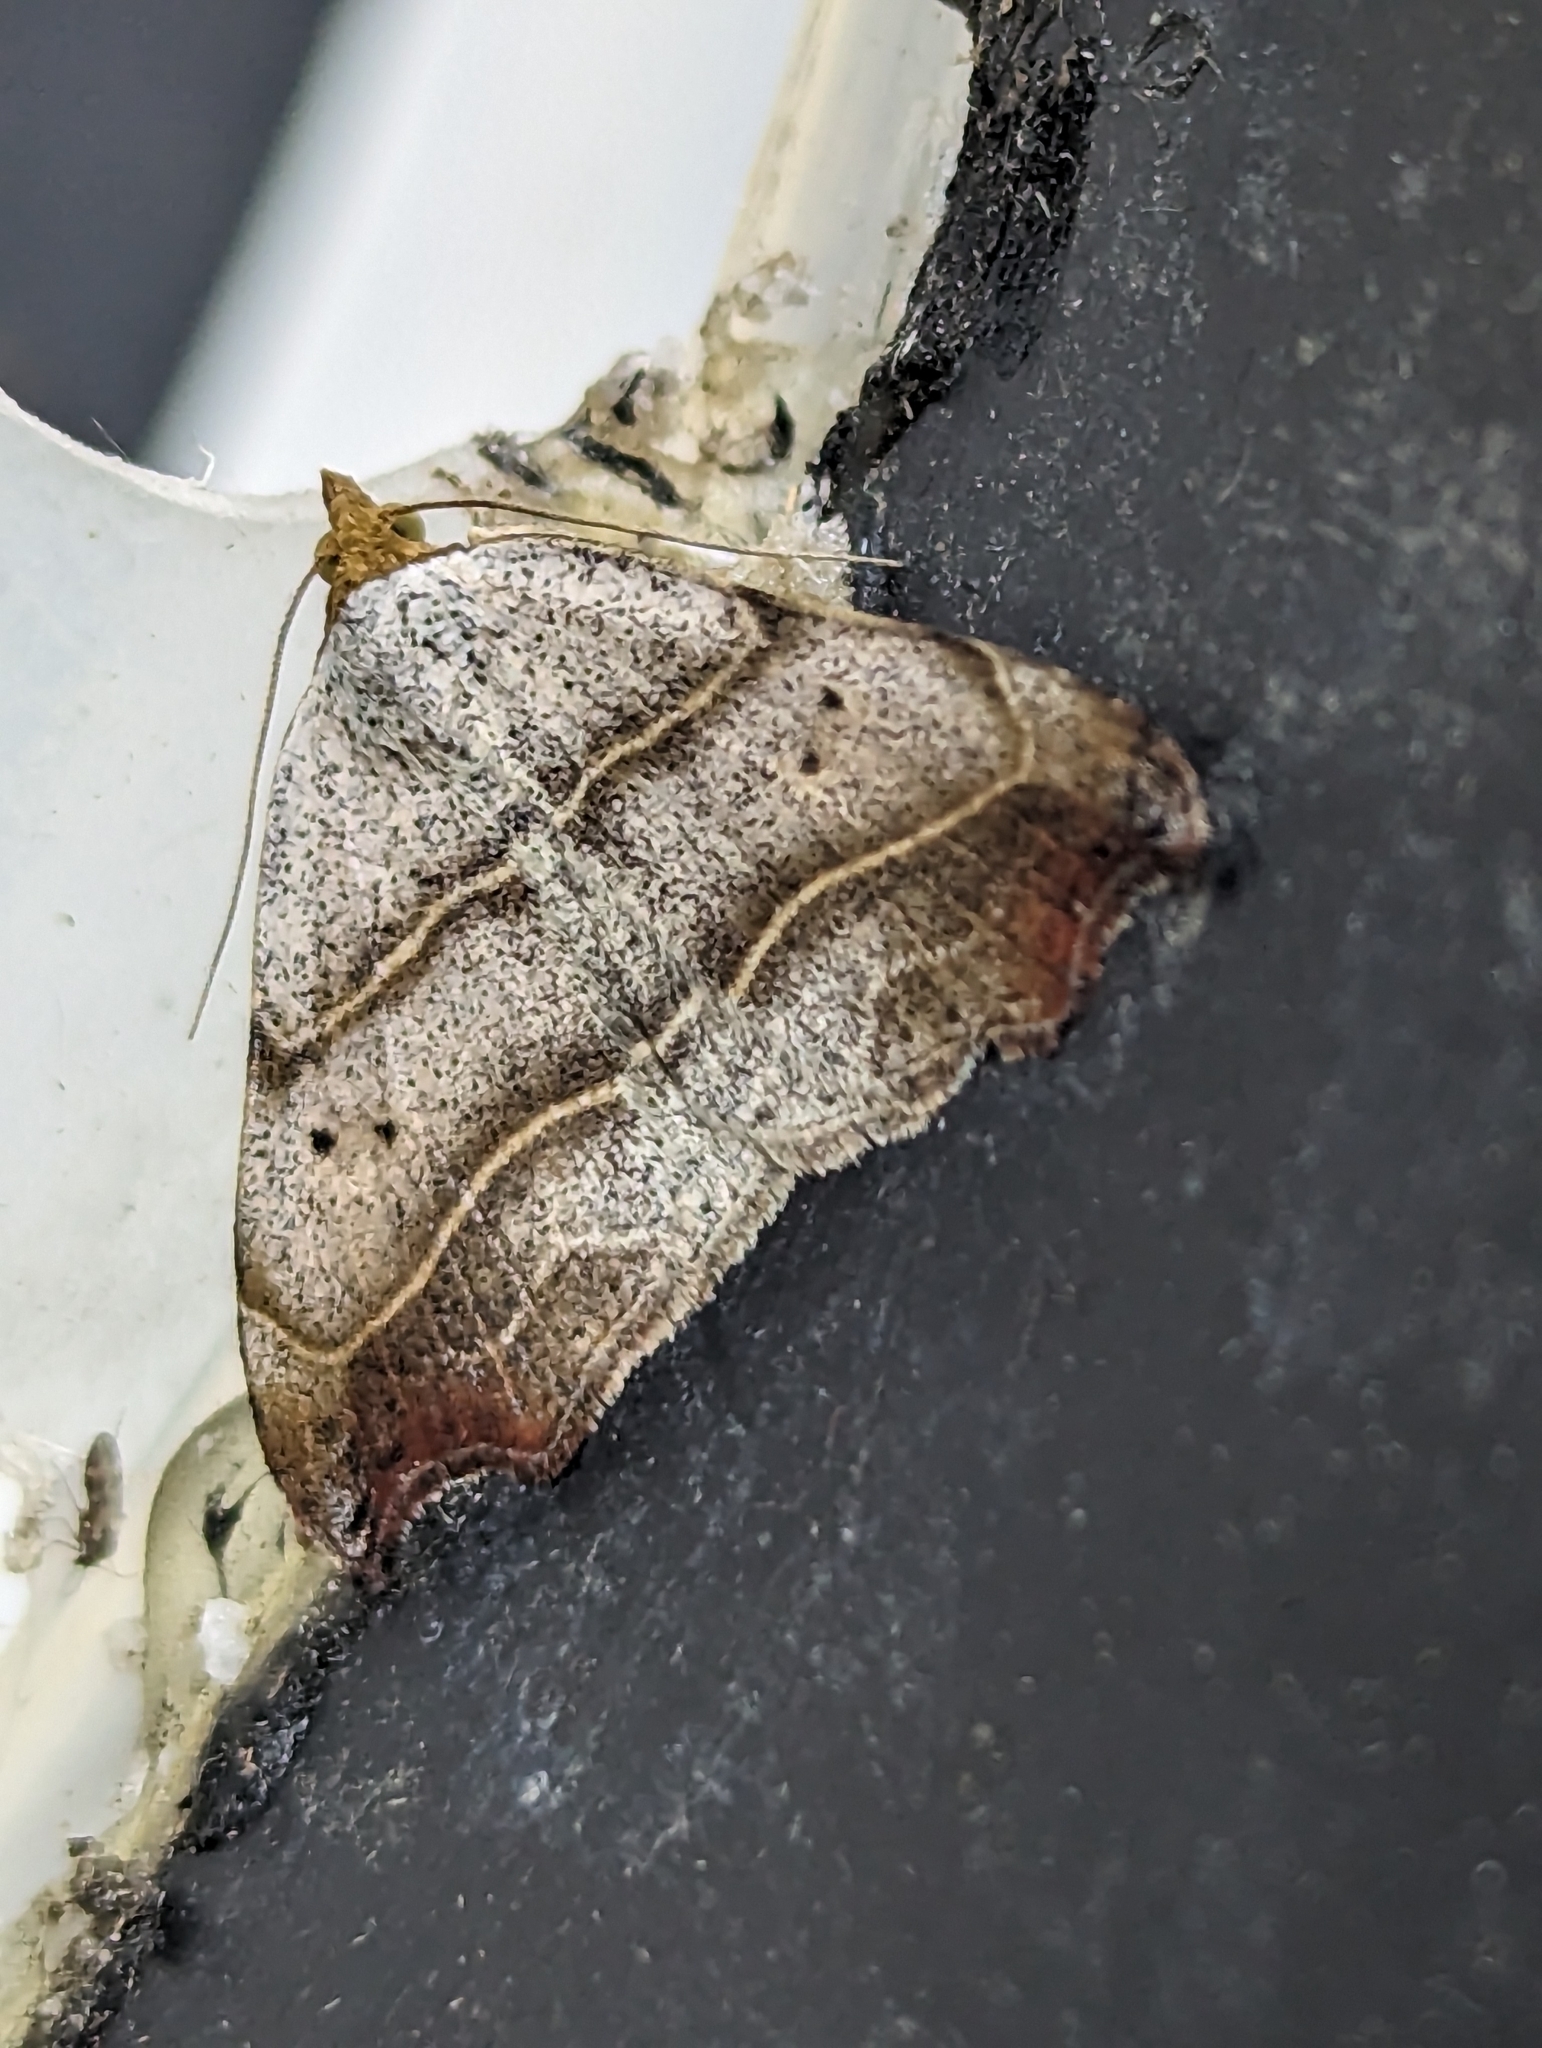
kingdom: Animalia
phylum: Arthropoda
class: Insecta
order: Lepidoptera
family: Erebidae
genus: Laspeyria
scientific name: Laspeyria flexula
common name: Beautiful hook-tip
